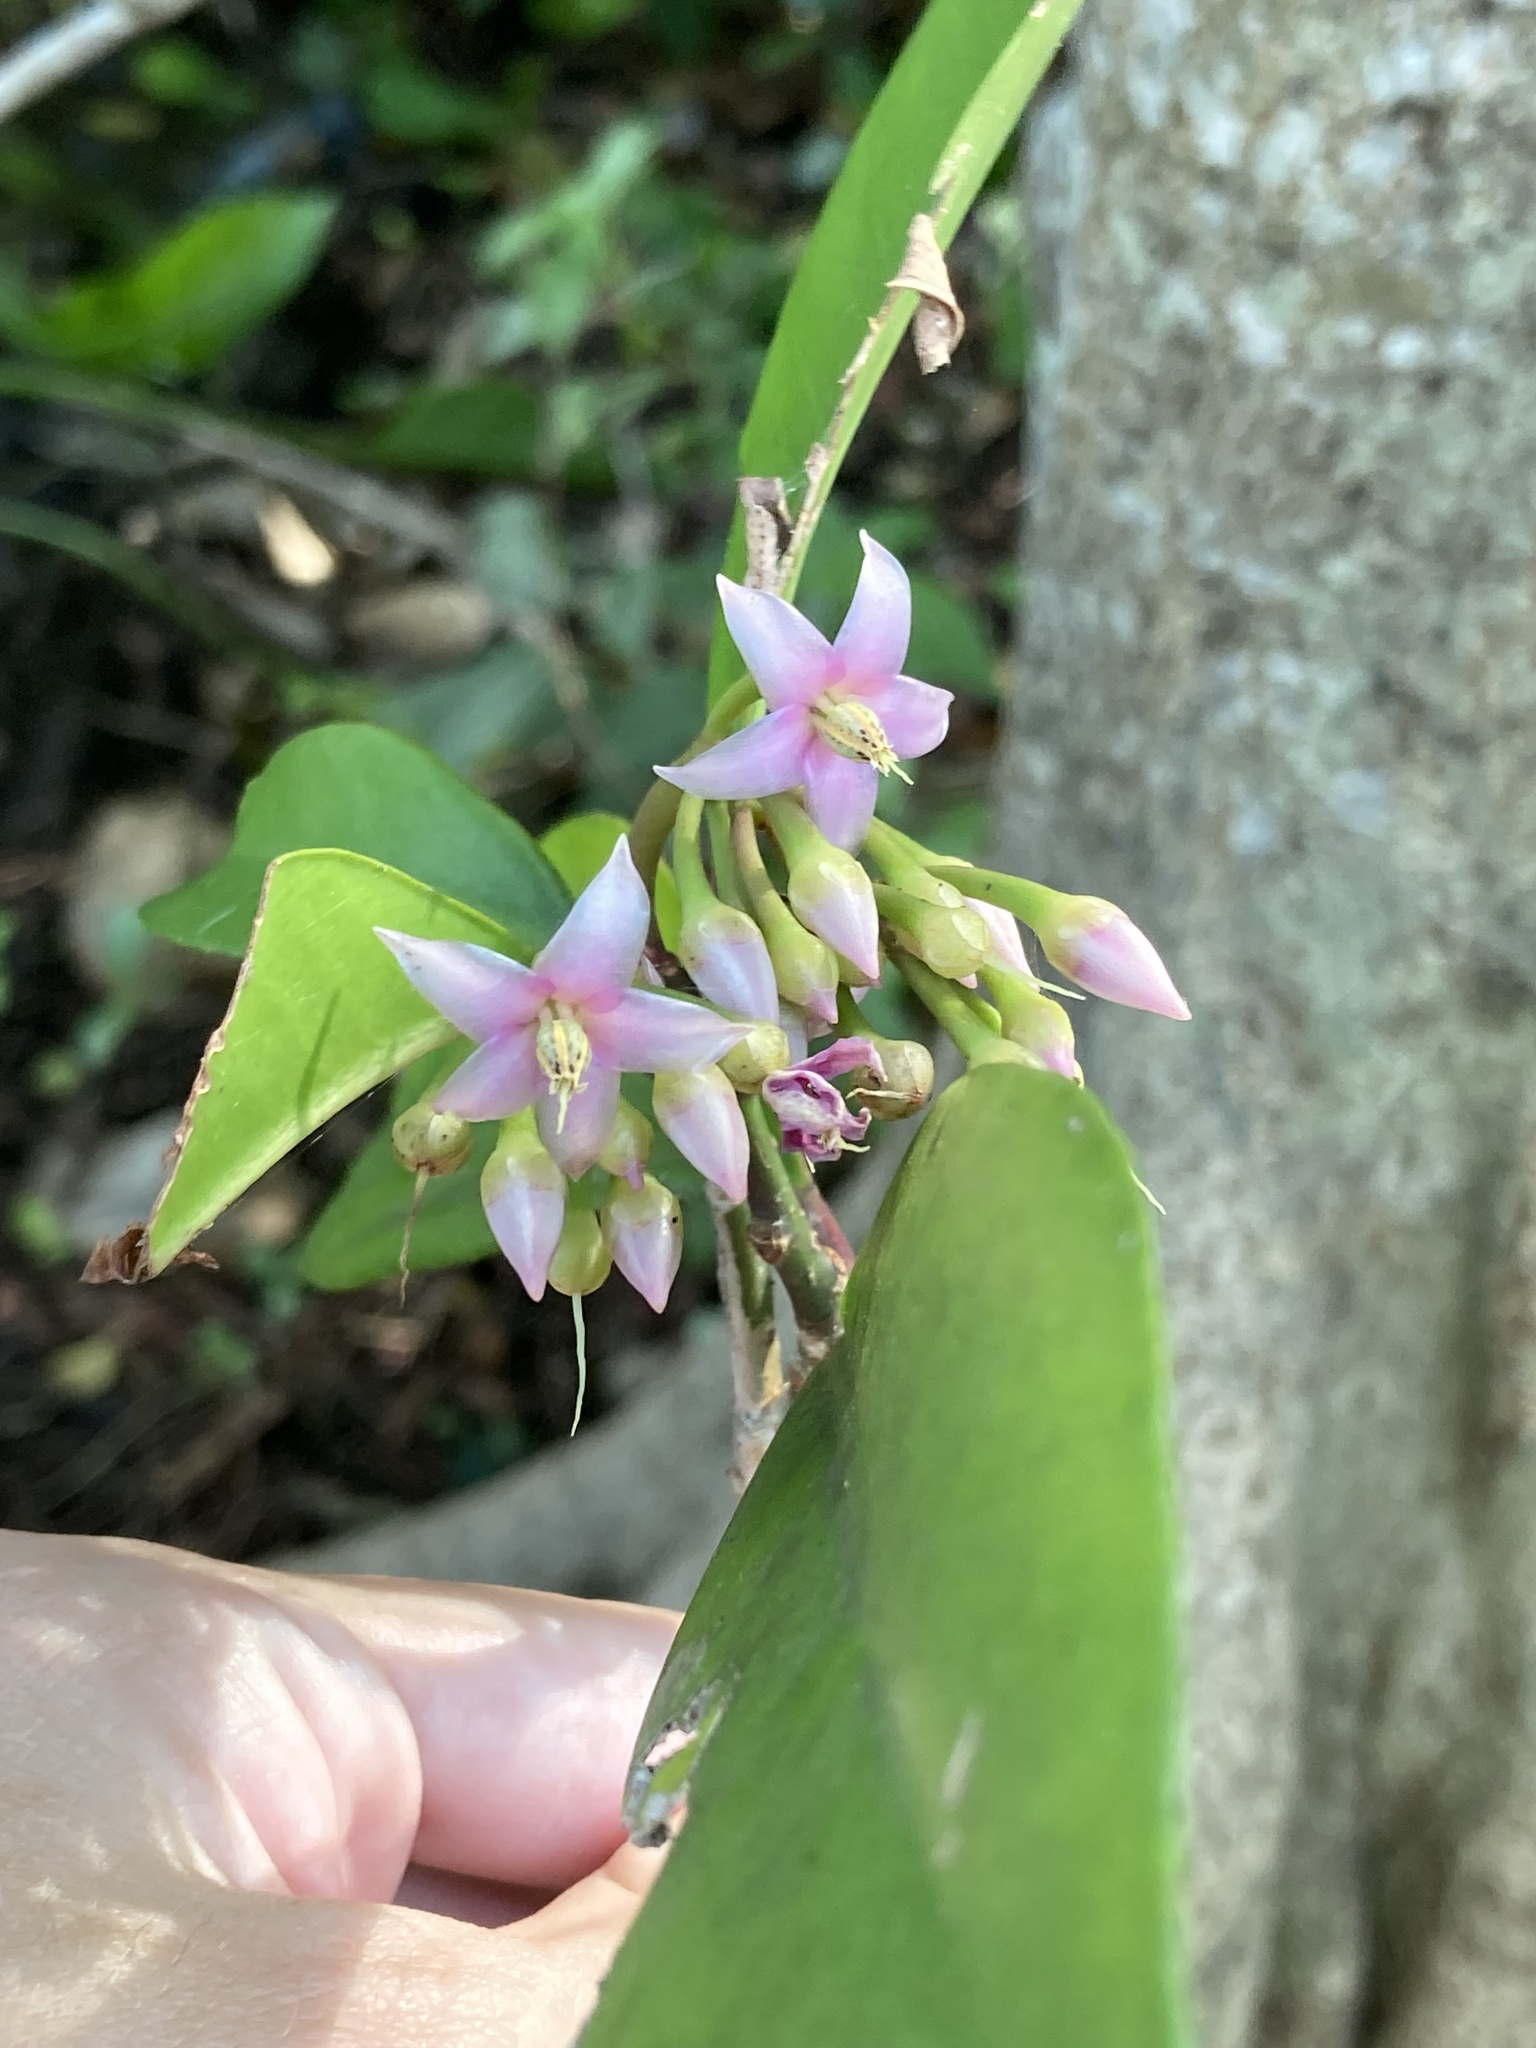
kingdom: Plantae
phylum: Tracheophyta
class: Magnoliopsida
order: Ericales
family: Primulaceae
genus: Ardisia
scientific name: Ardisia elliptica
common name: Shoebutton
